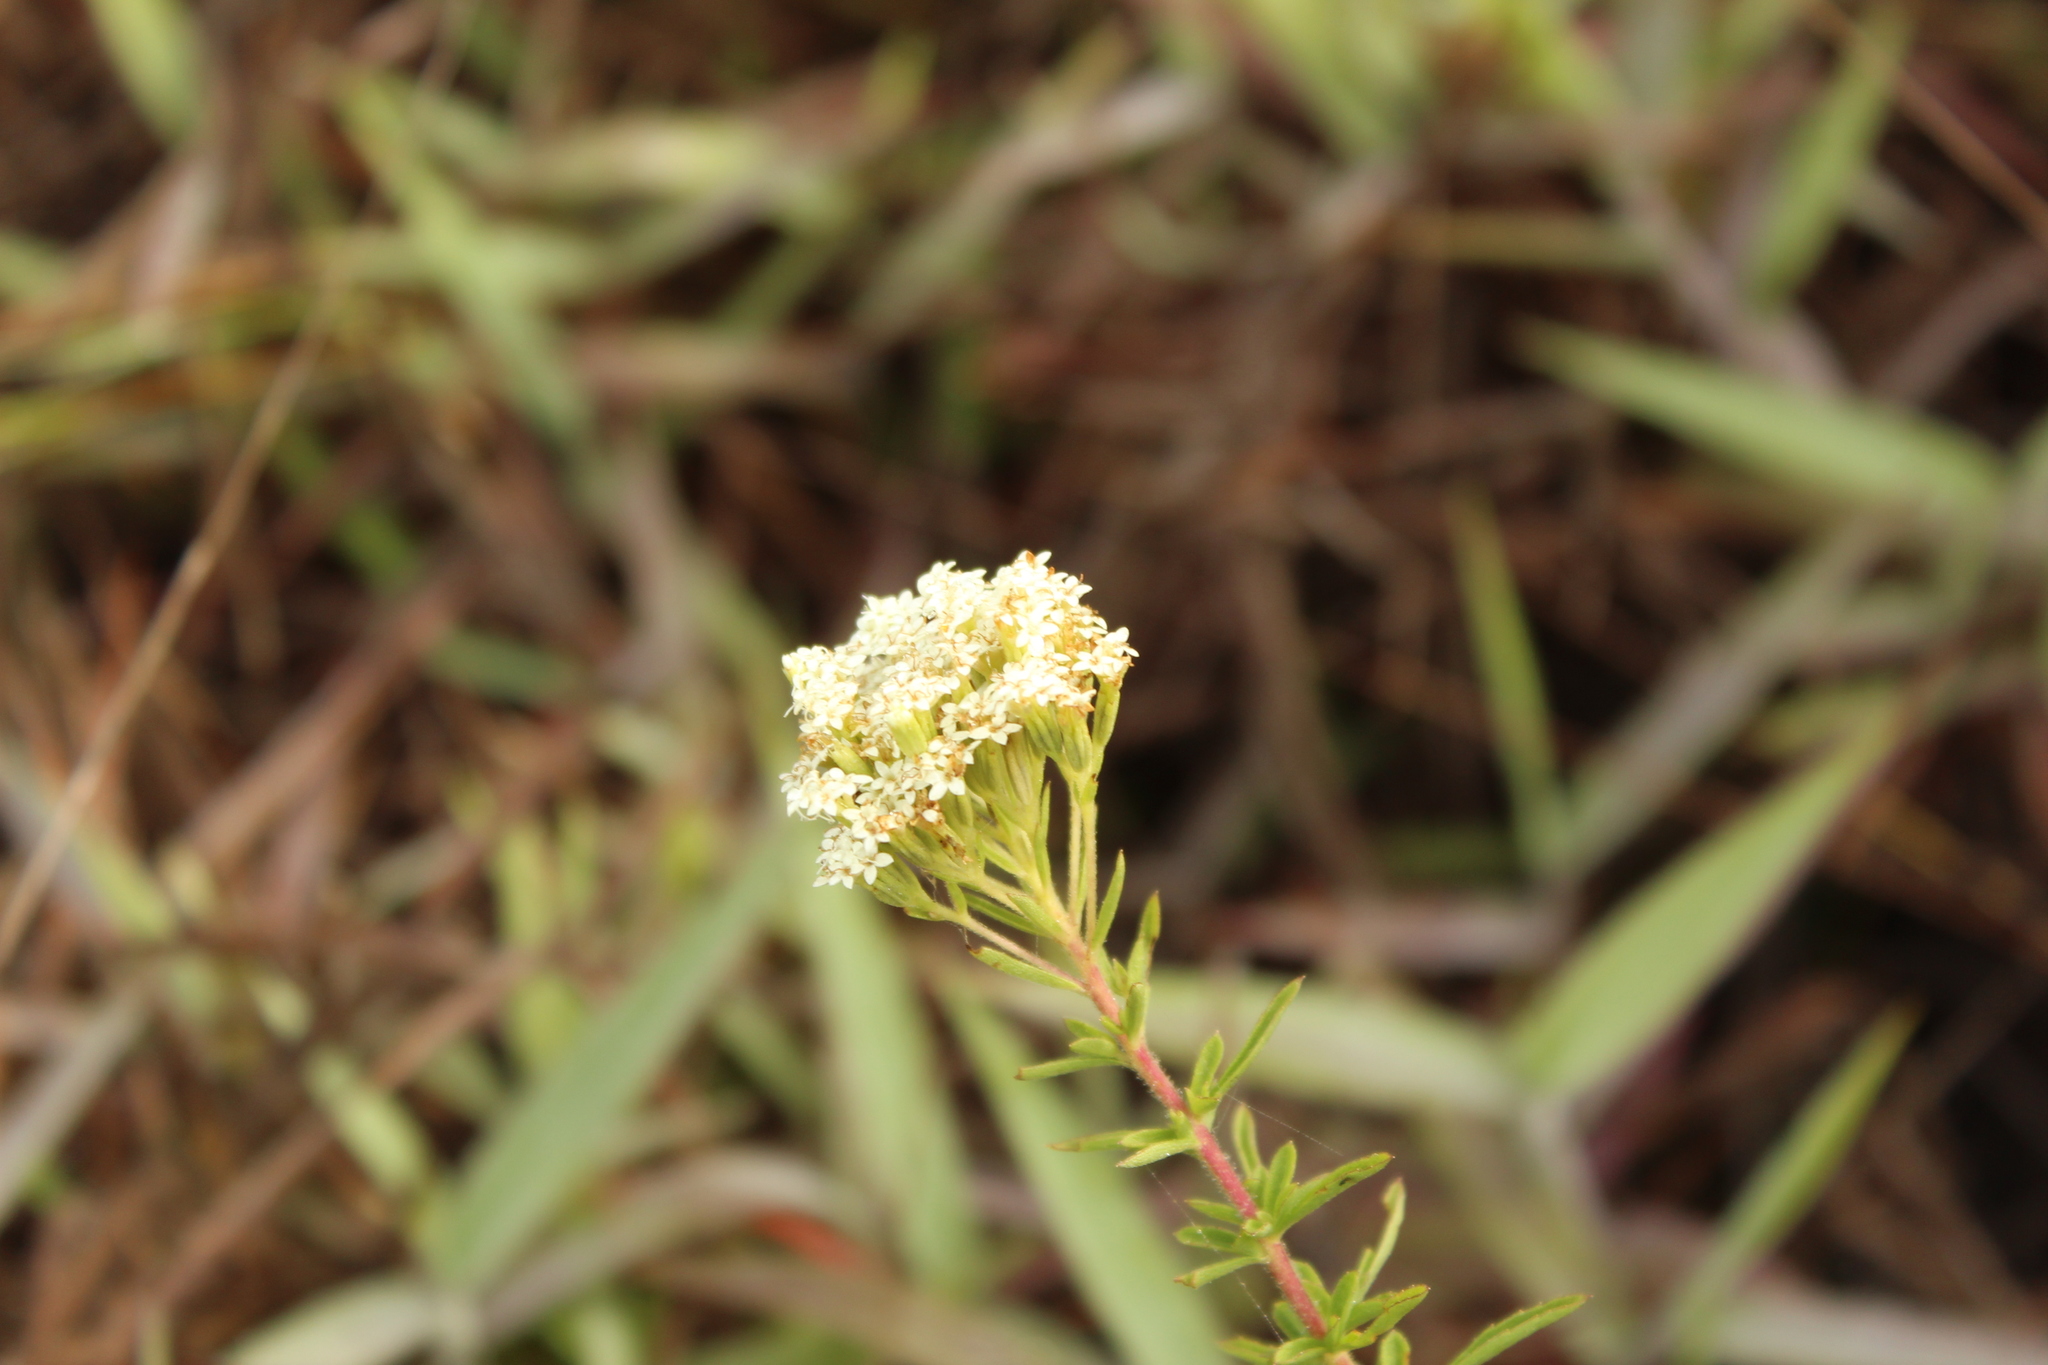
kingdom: Plantae
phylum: Tracheophyta
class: Magnoliopsida
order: Asterales
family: Asteraceae
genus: Stevia
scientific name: Stevia serrata
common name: Sawtooth candyleaf
